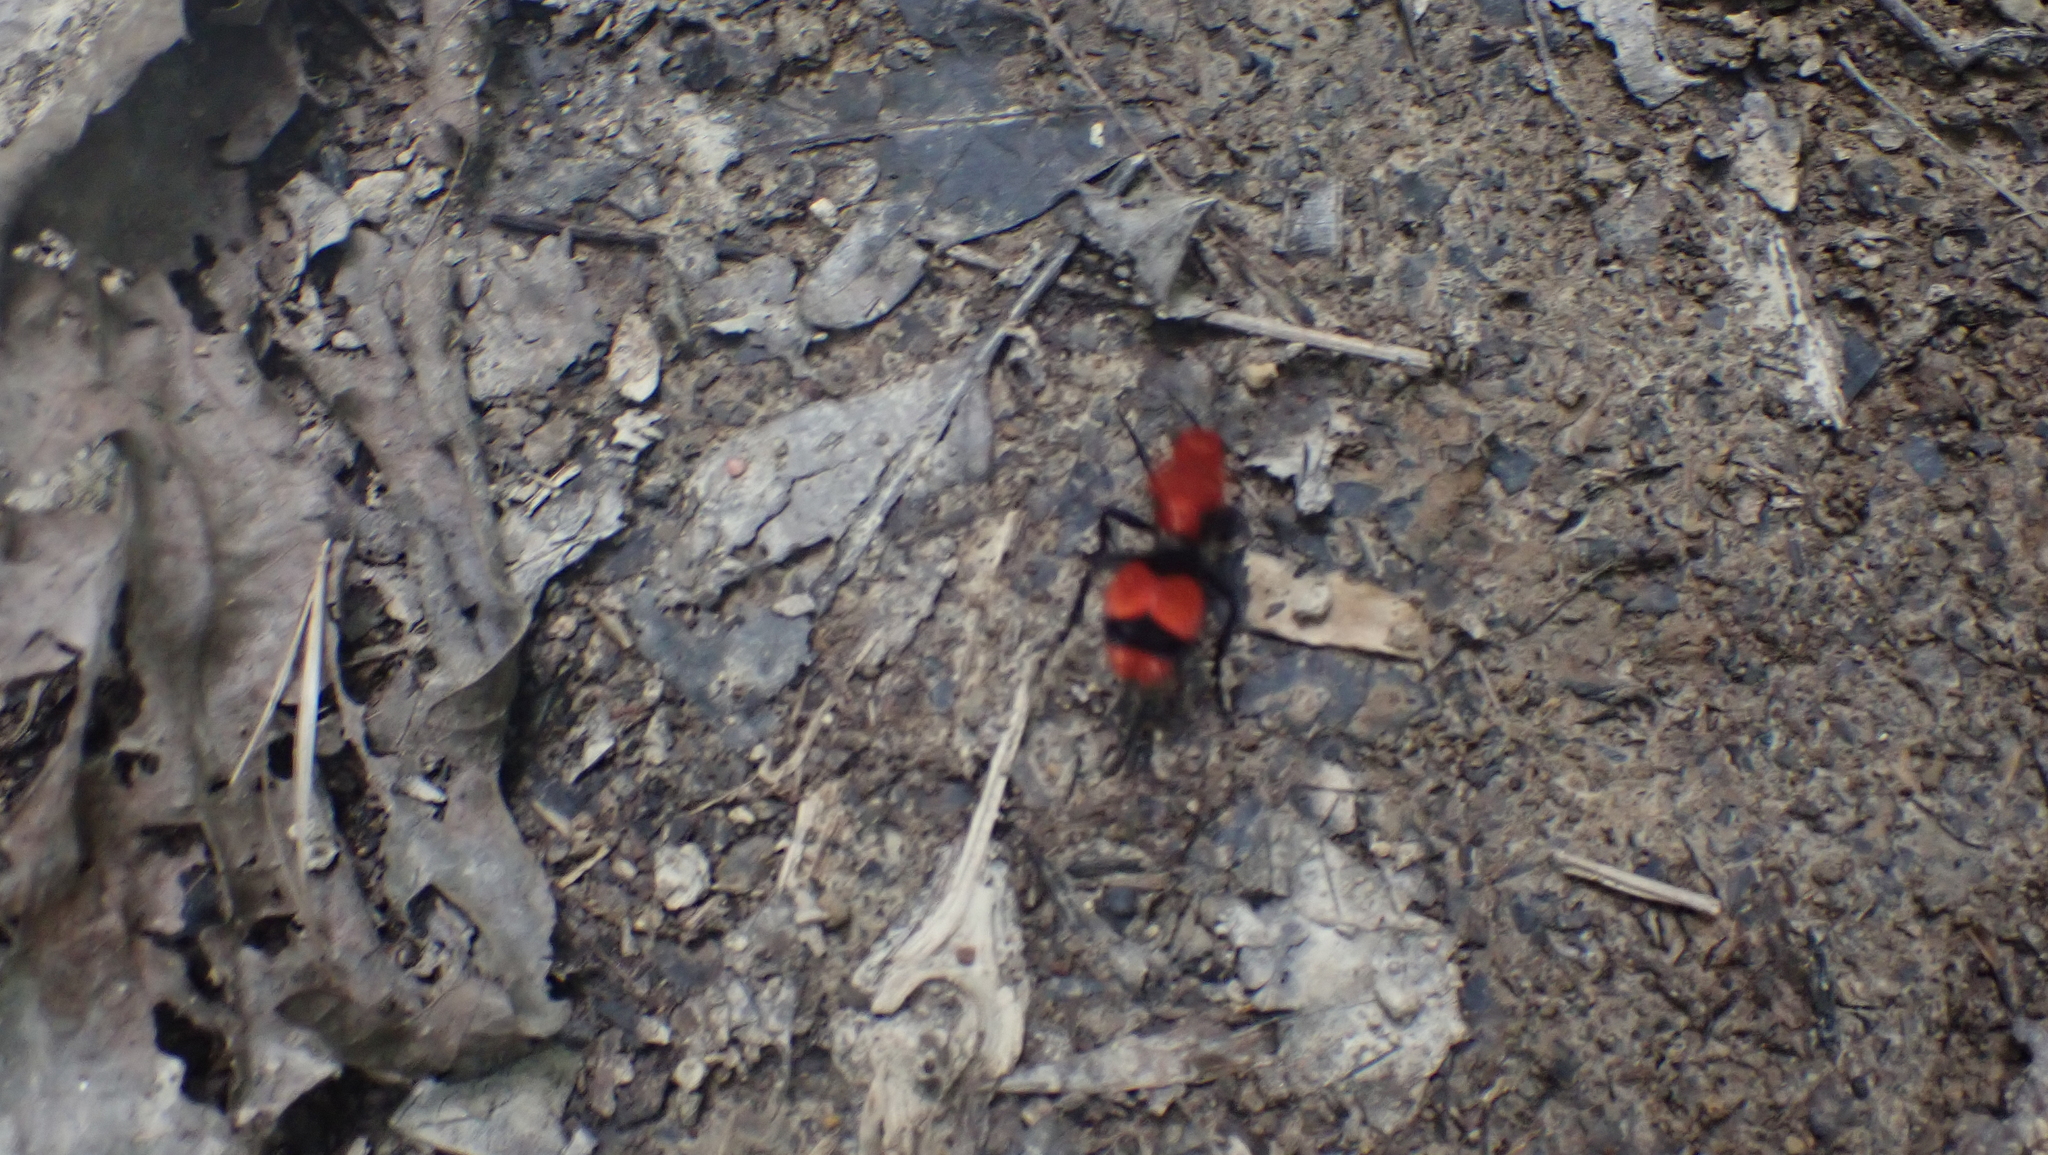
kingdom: Animalia
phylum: Arthropoda
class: Insecta
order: Hymenoptera
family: Mutillidae
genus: Dasymutilla
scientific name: Dasymutilla occidentalis
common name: Common eastern velvet ant
